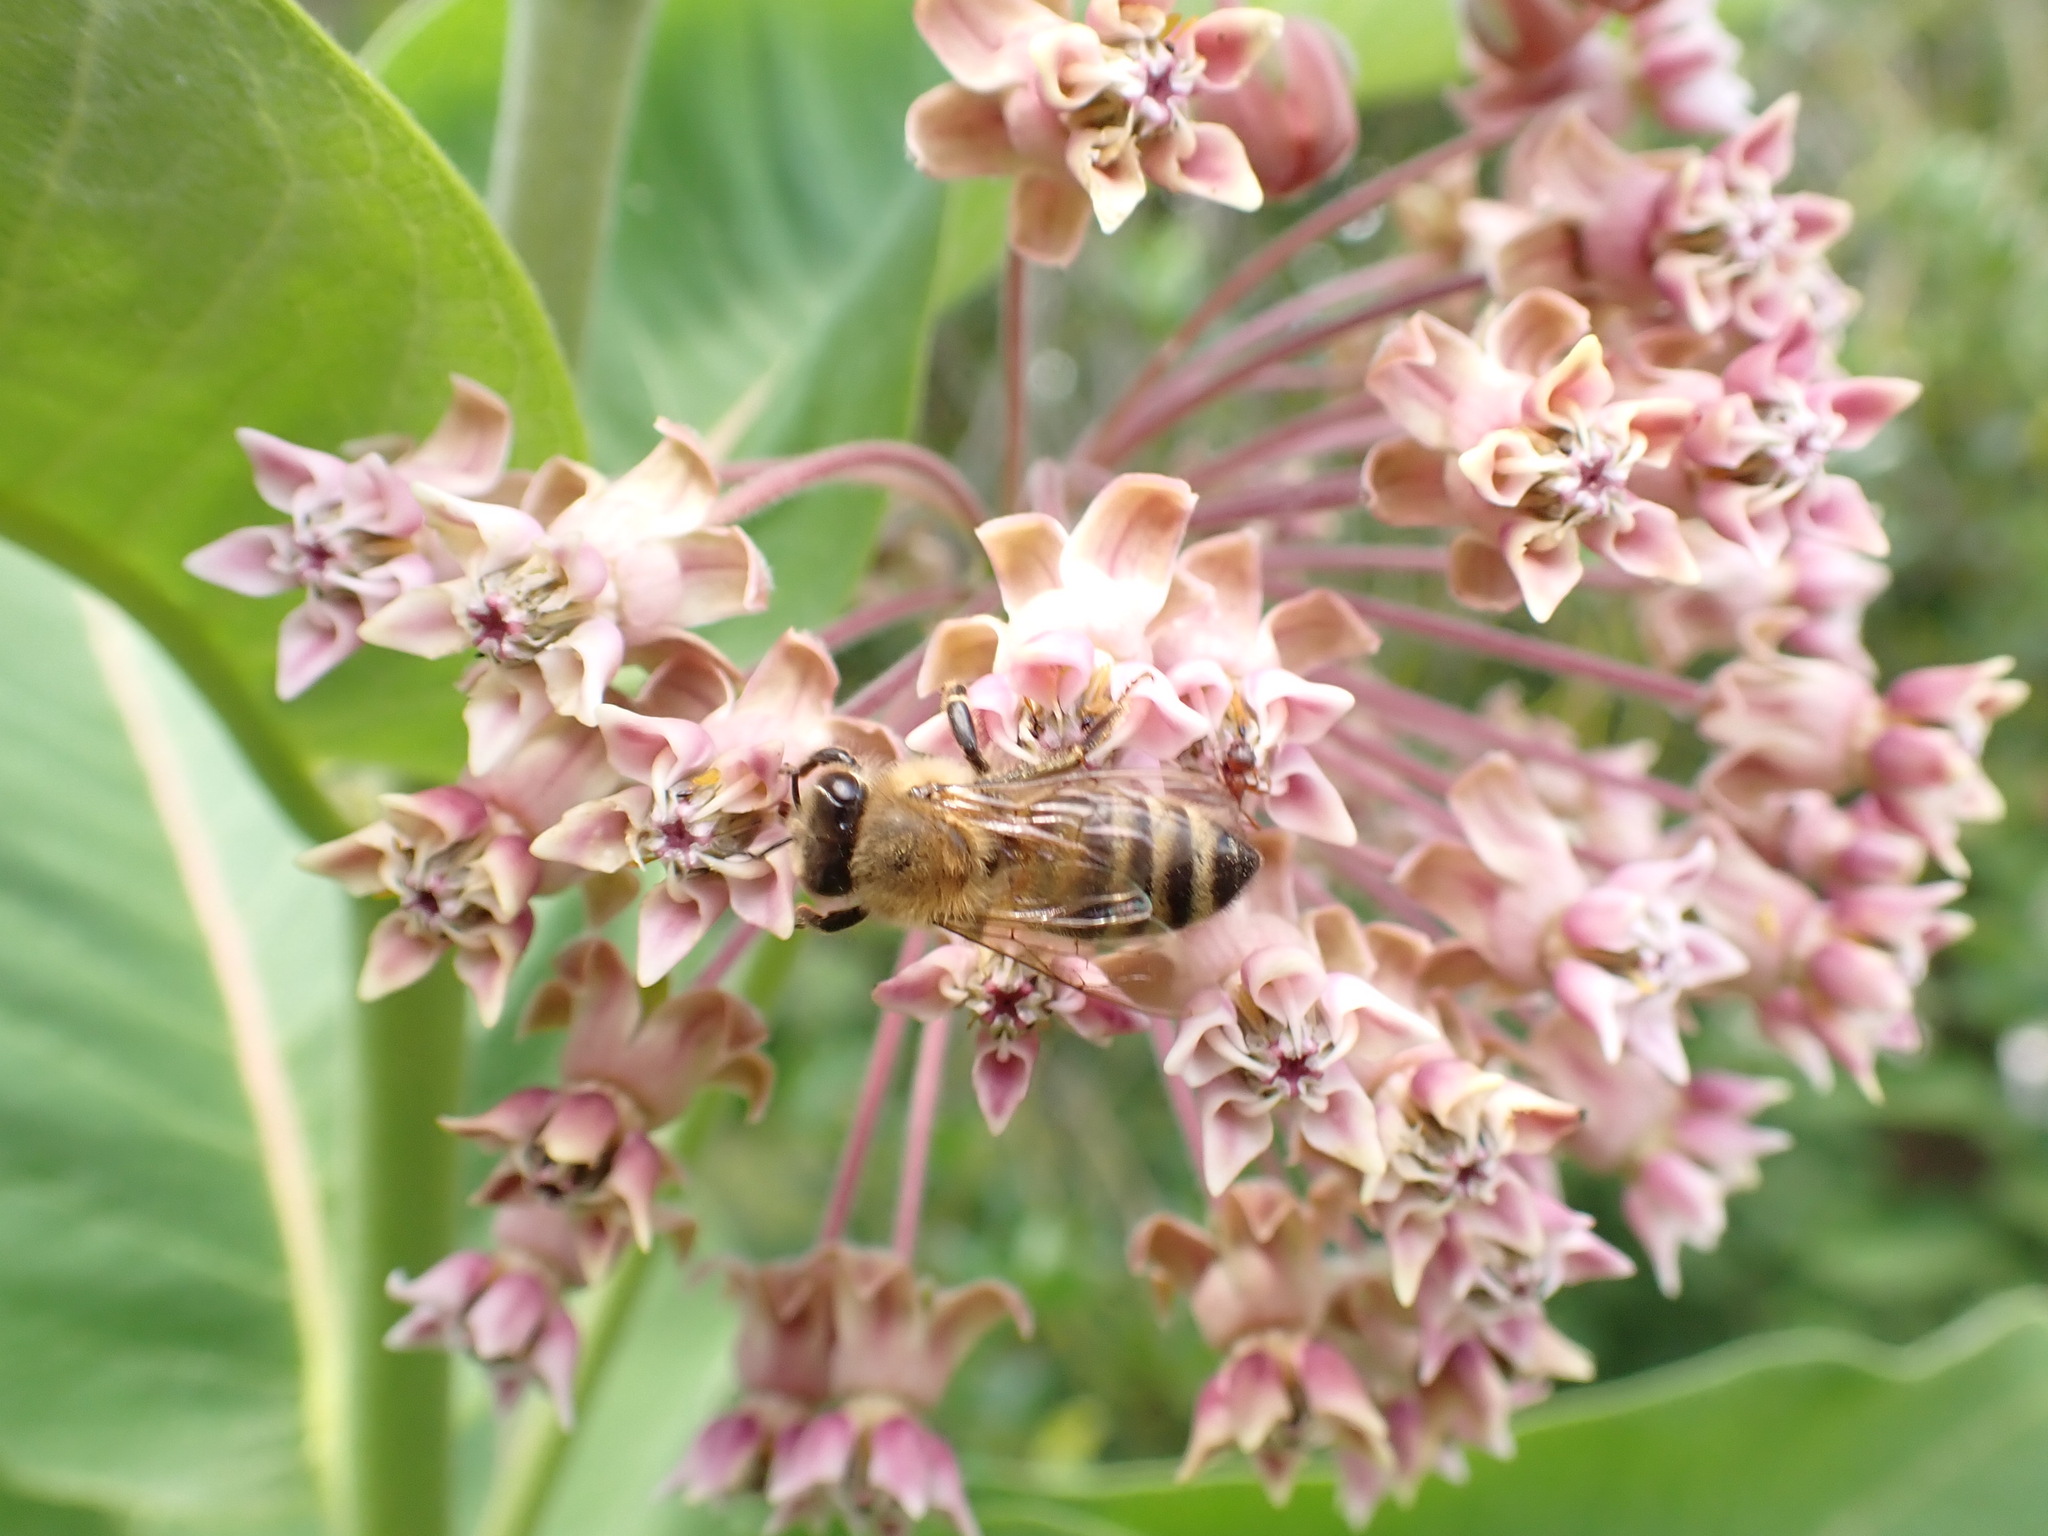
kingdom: Animalia
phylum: Arthropoda
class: Insecta
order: Hymenoptera
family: Apidae
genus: Apis
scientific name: Apis mellifera
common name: Honey bee
